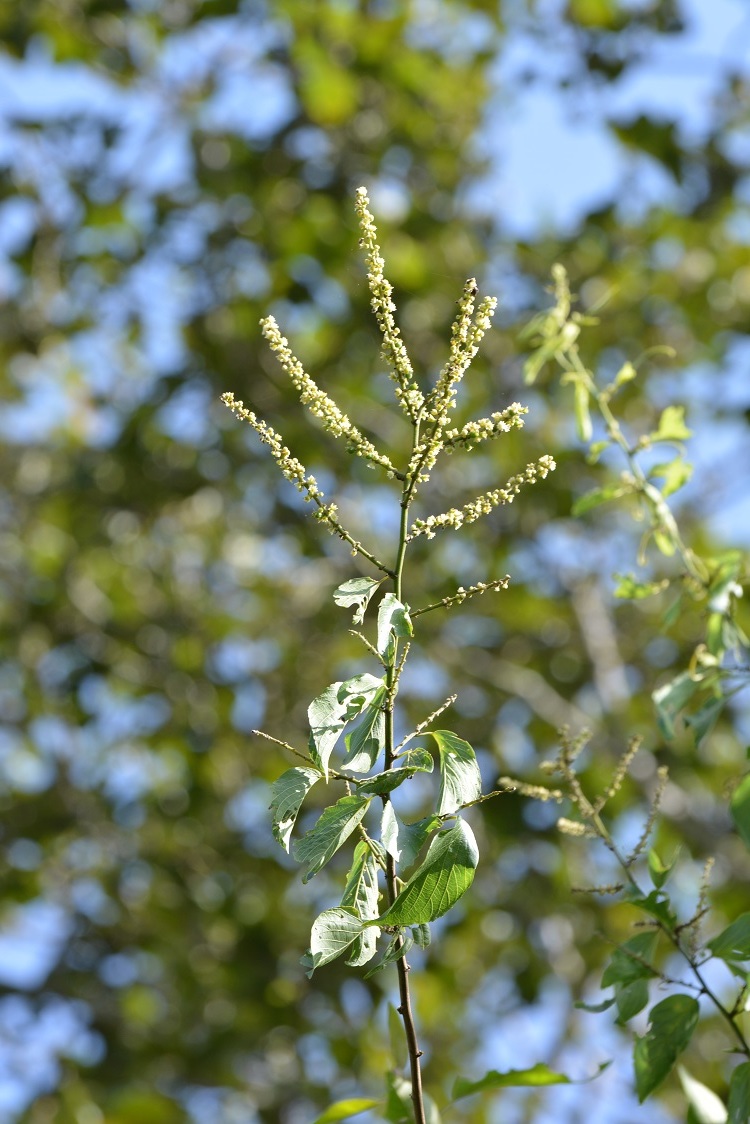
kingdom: Plantae
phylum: Tracheophyta
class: Magnoliopsida
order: Boraginales
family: Cordiaceae
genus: Varronia
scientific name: Varronia spinescens
